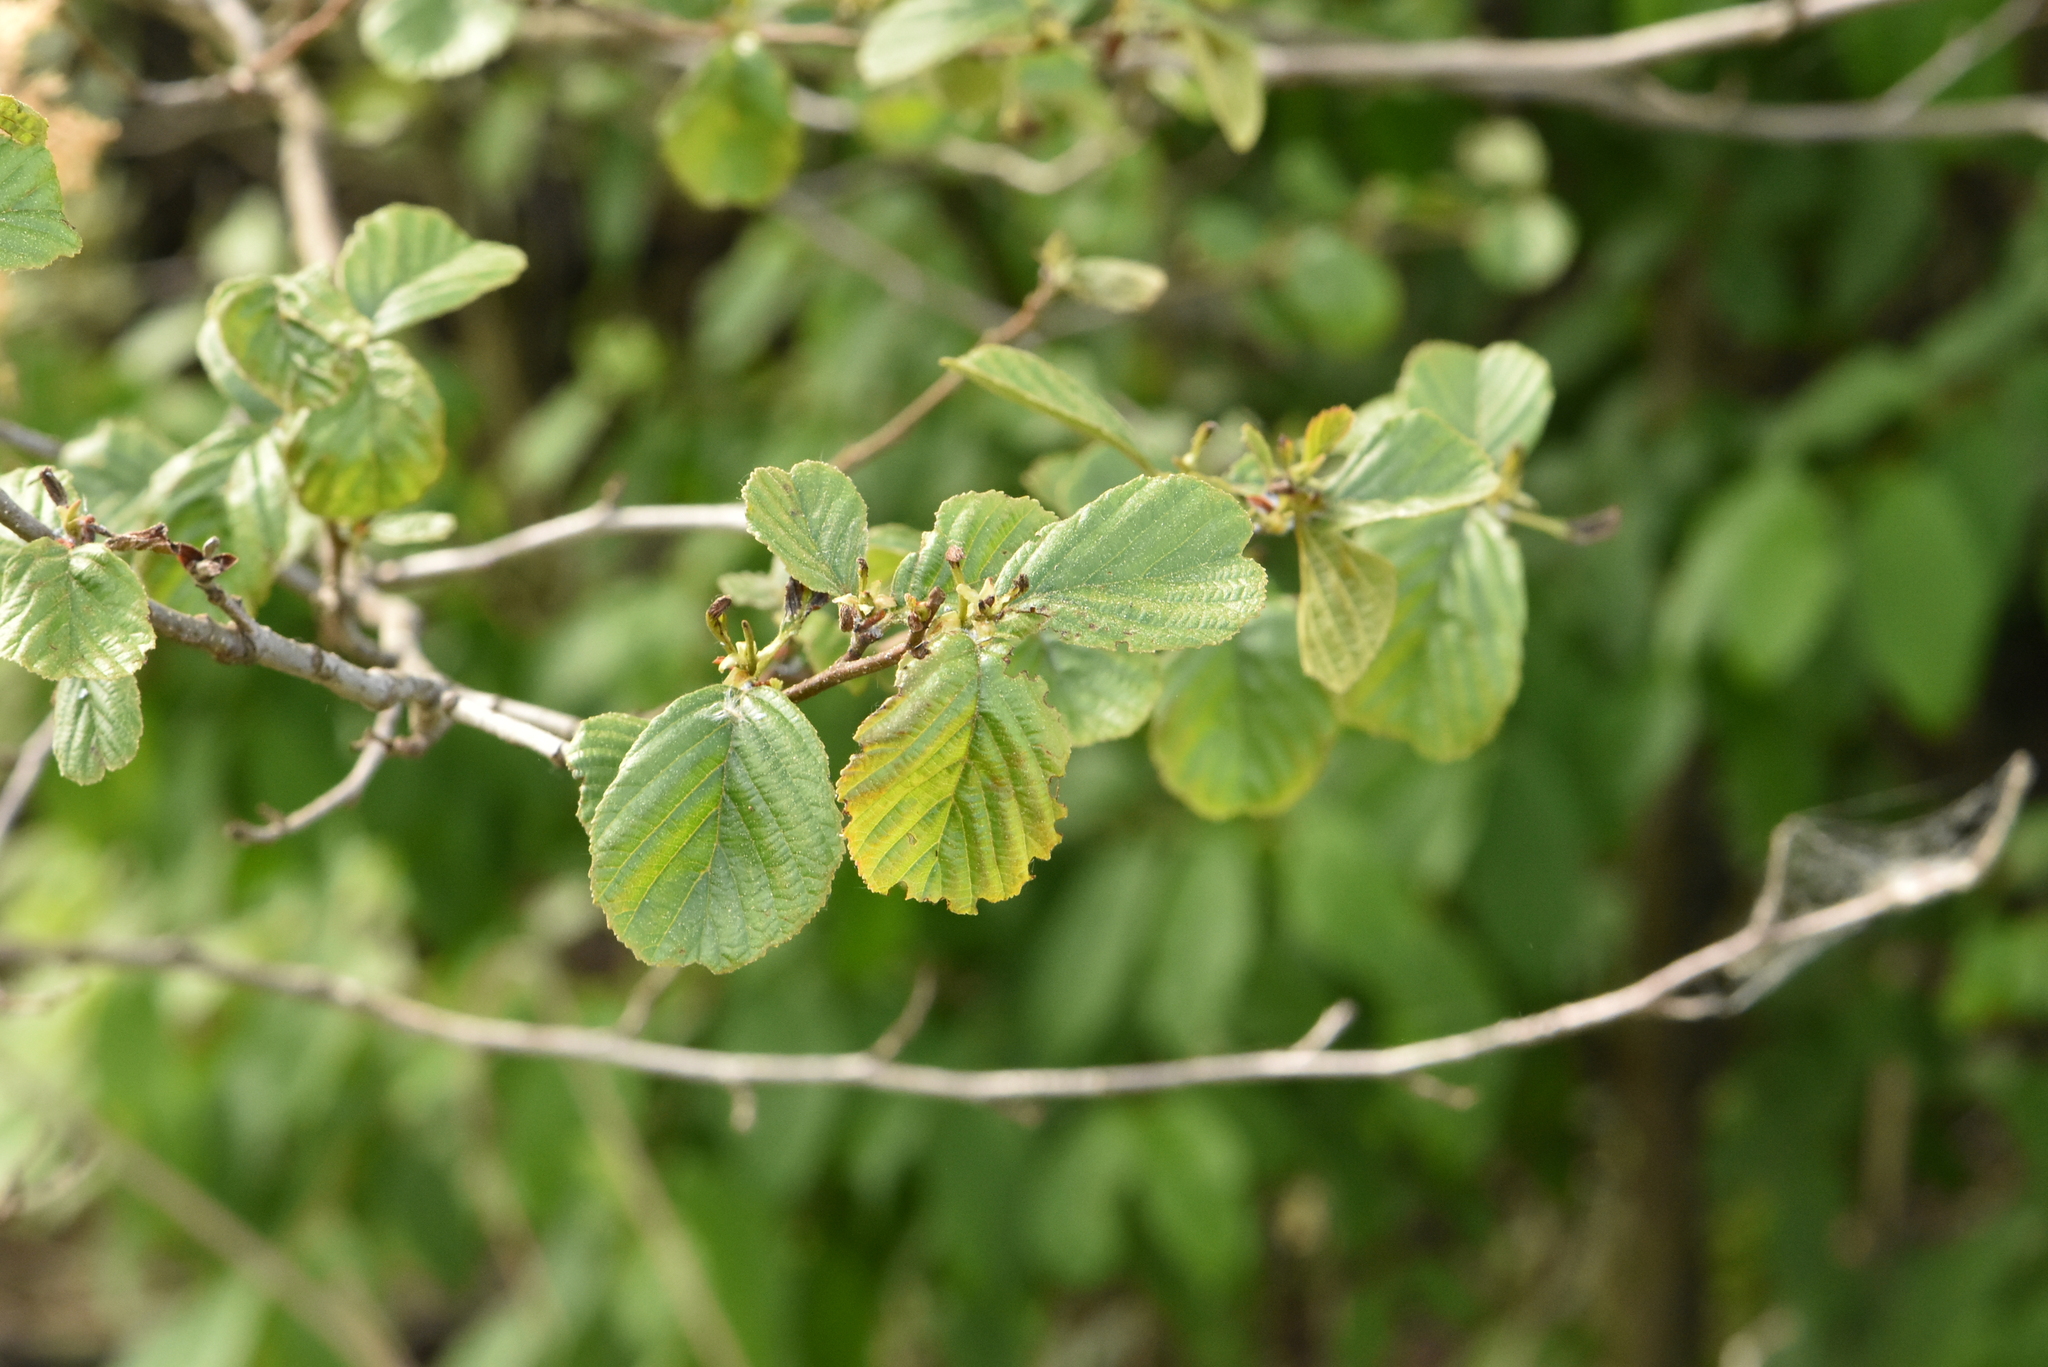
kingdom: Plantae
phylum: Tracheophyta
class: Magnoliopsida
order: Fagales
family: Betulaceae
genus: Alnus
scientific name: Alnus glutinosa
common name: Black alder
